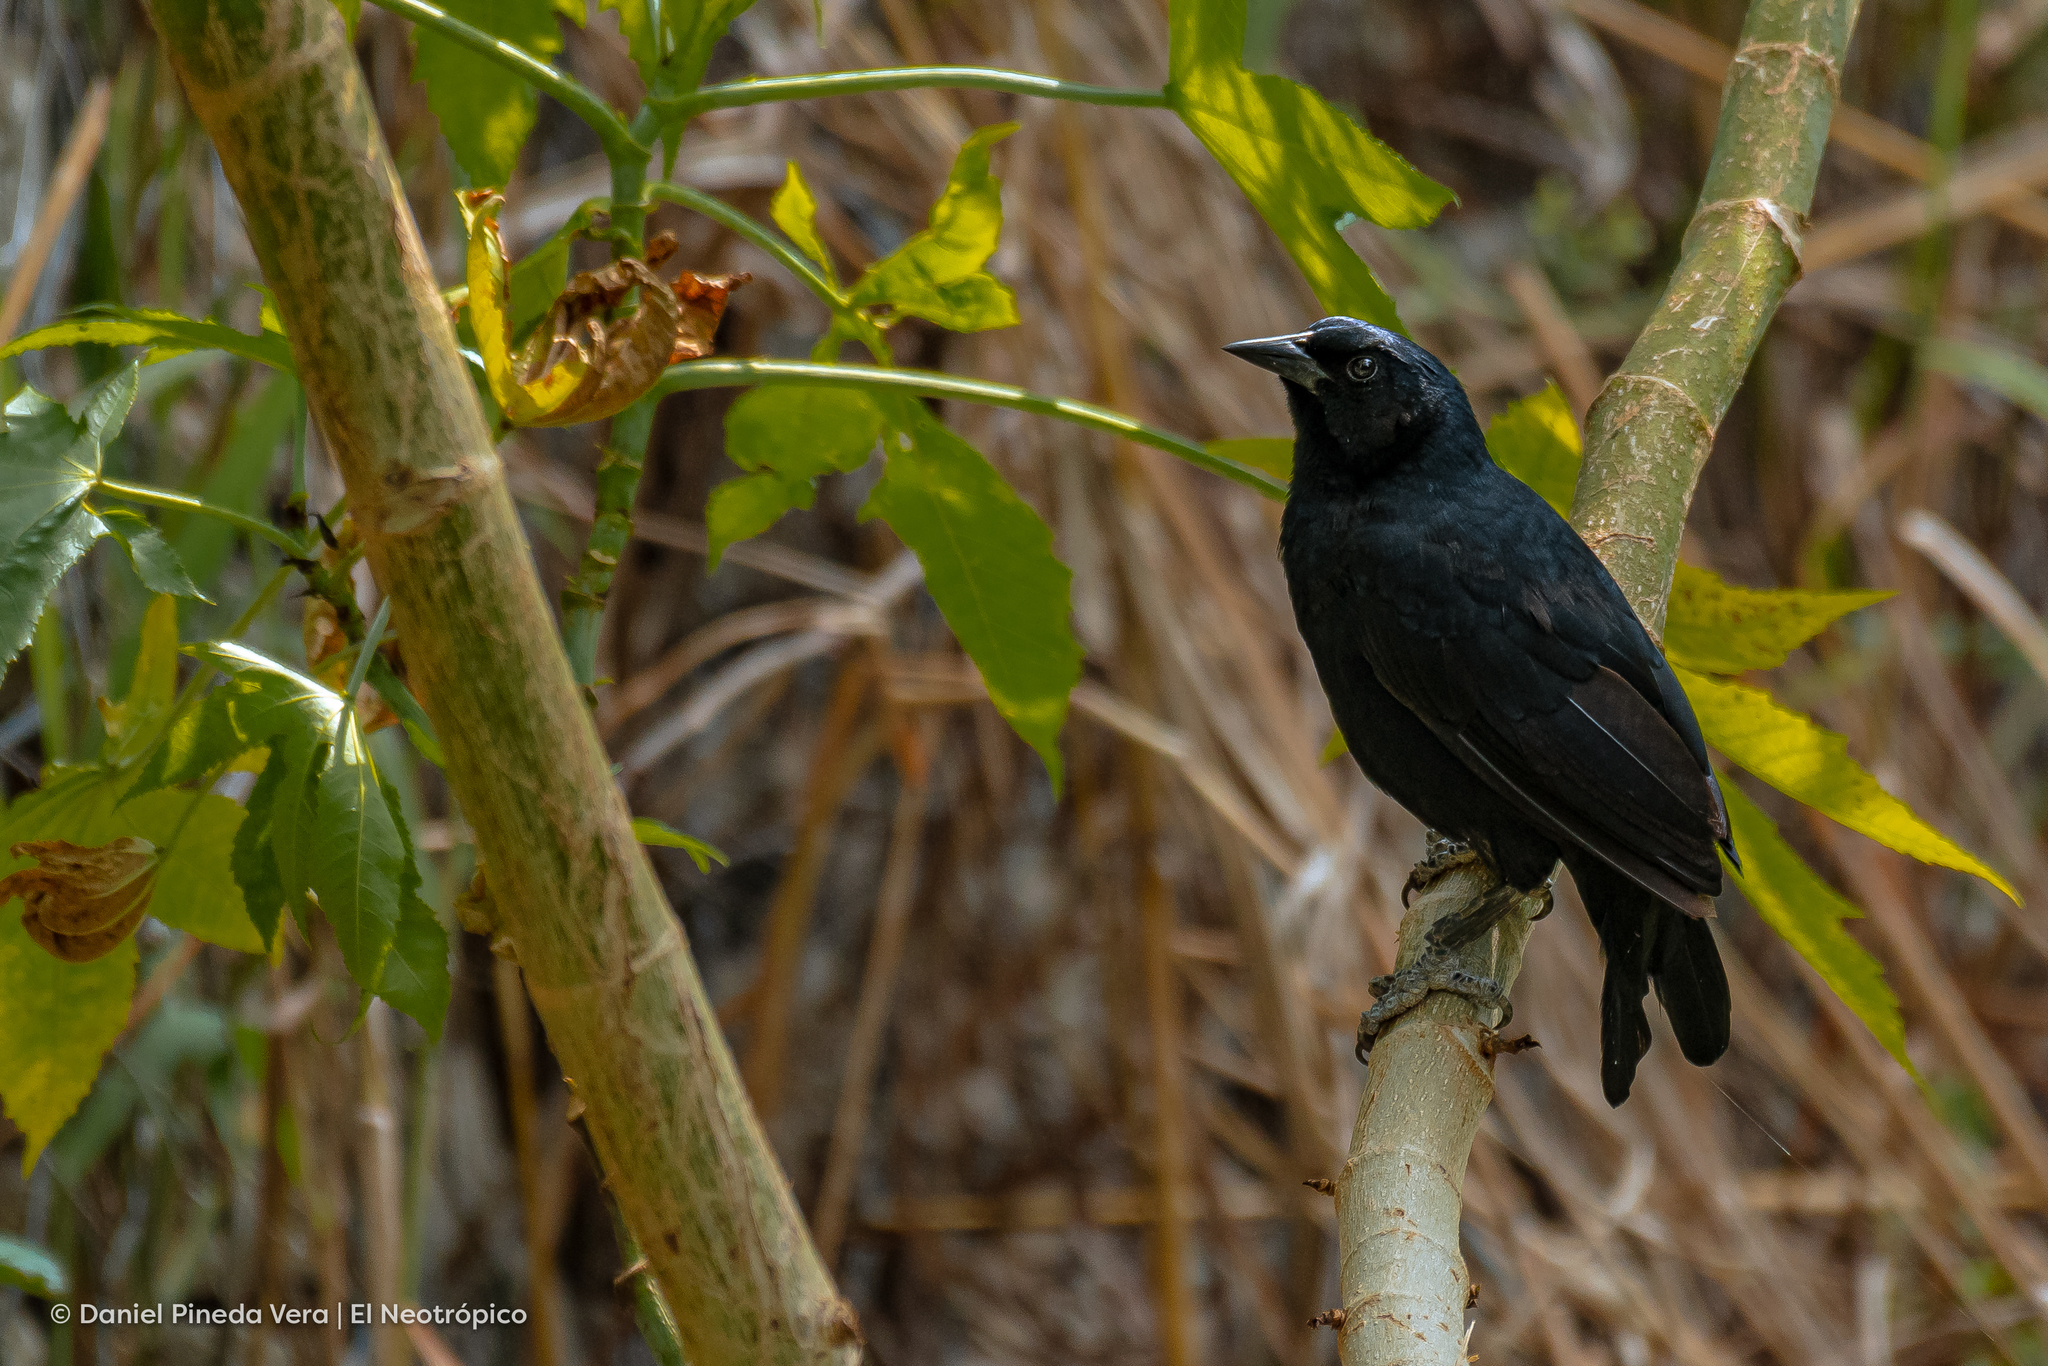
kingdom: Animalia
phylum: Chordata
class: Aves
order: Passeriformes
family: Icteridae
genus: Dives
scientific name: Dives dives
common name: Melodious blackbird
